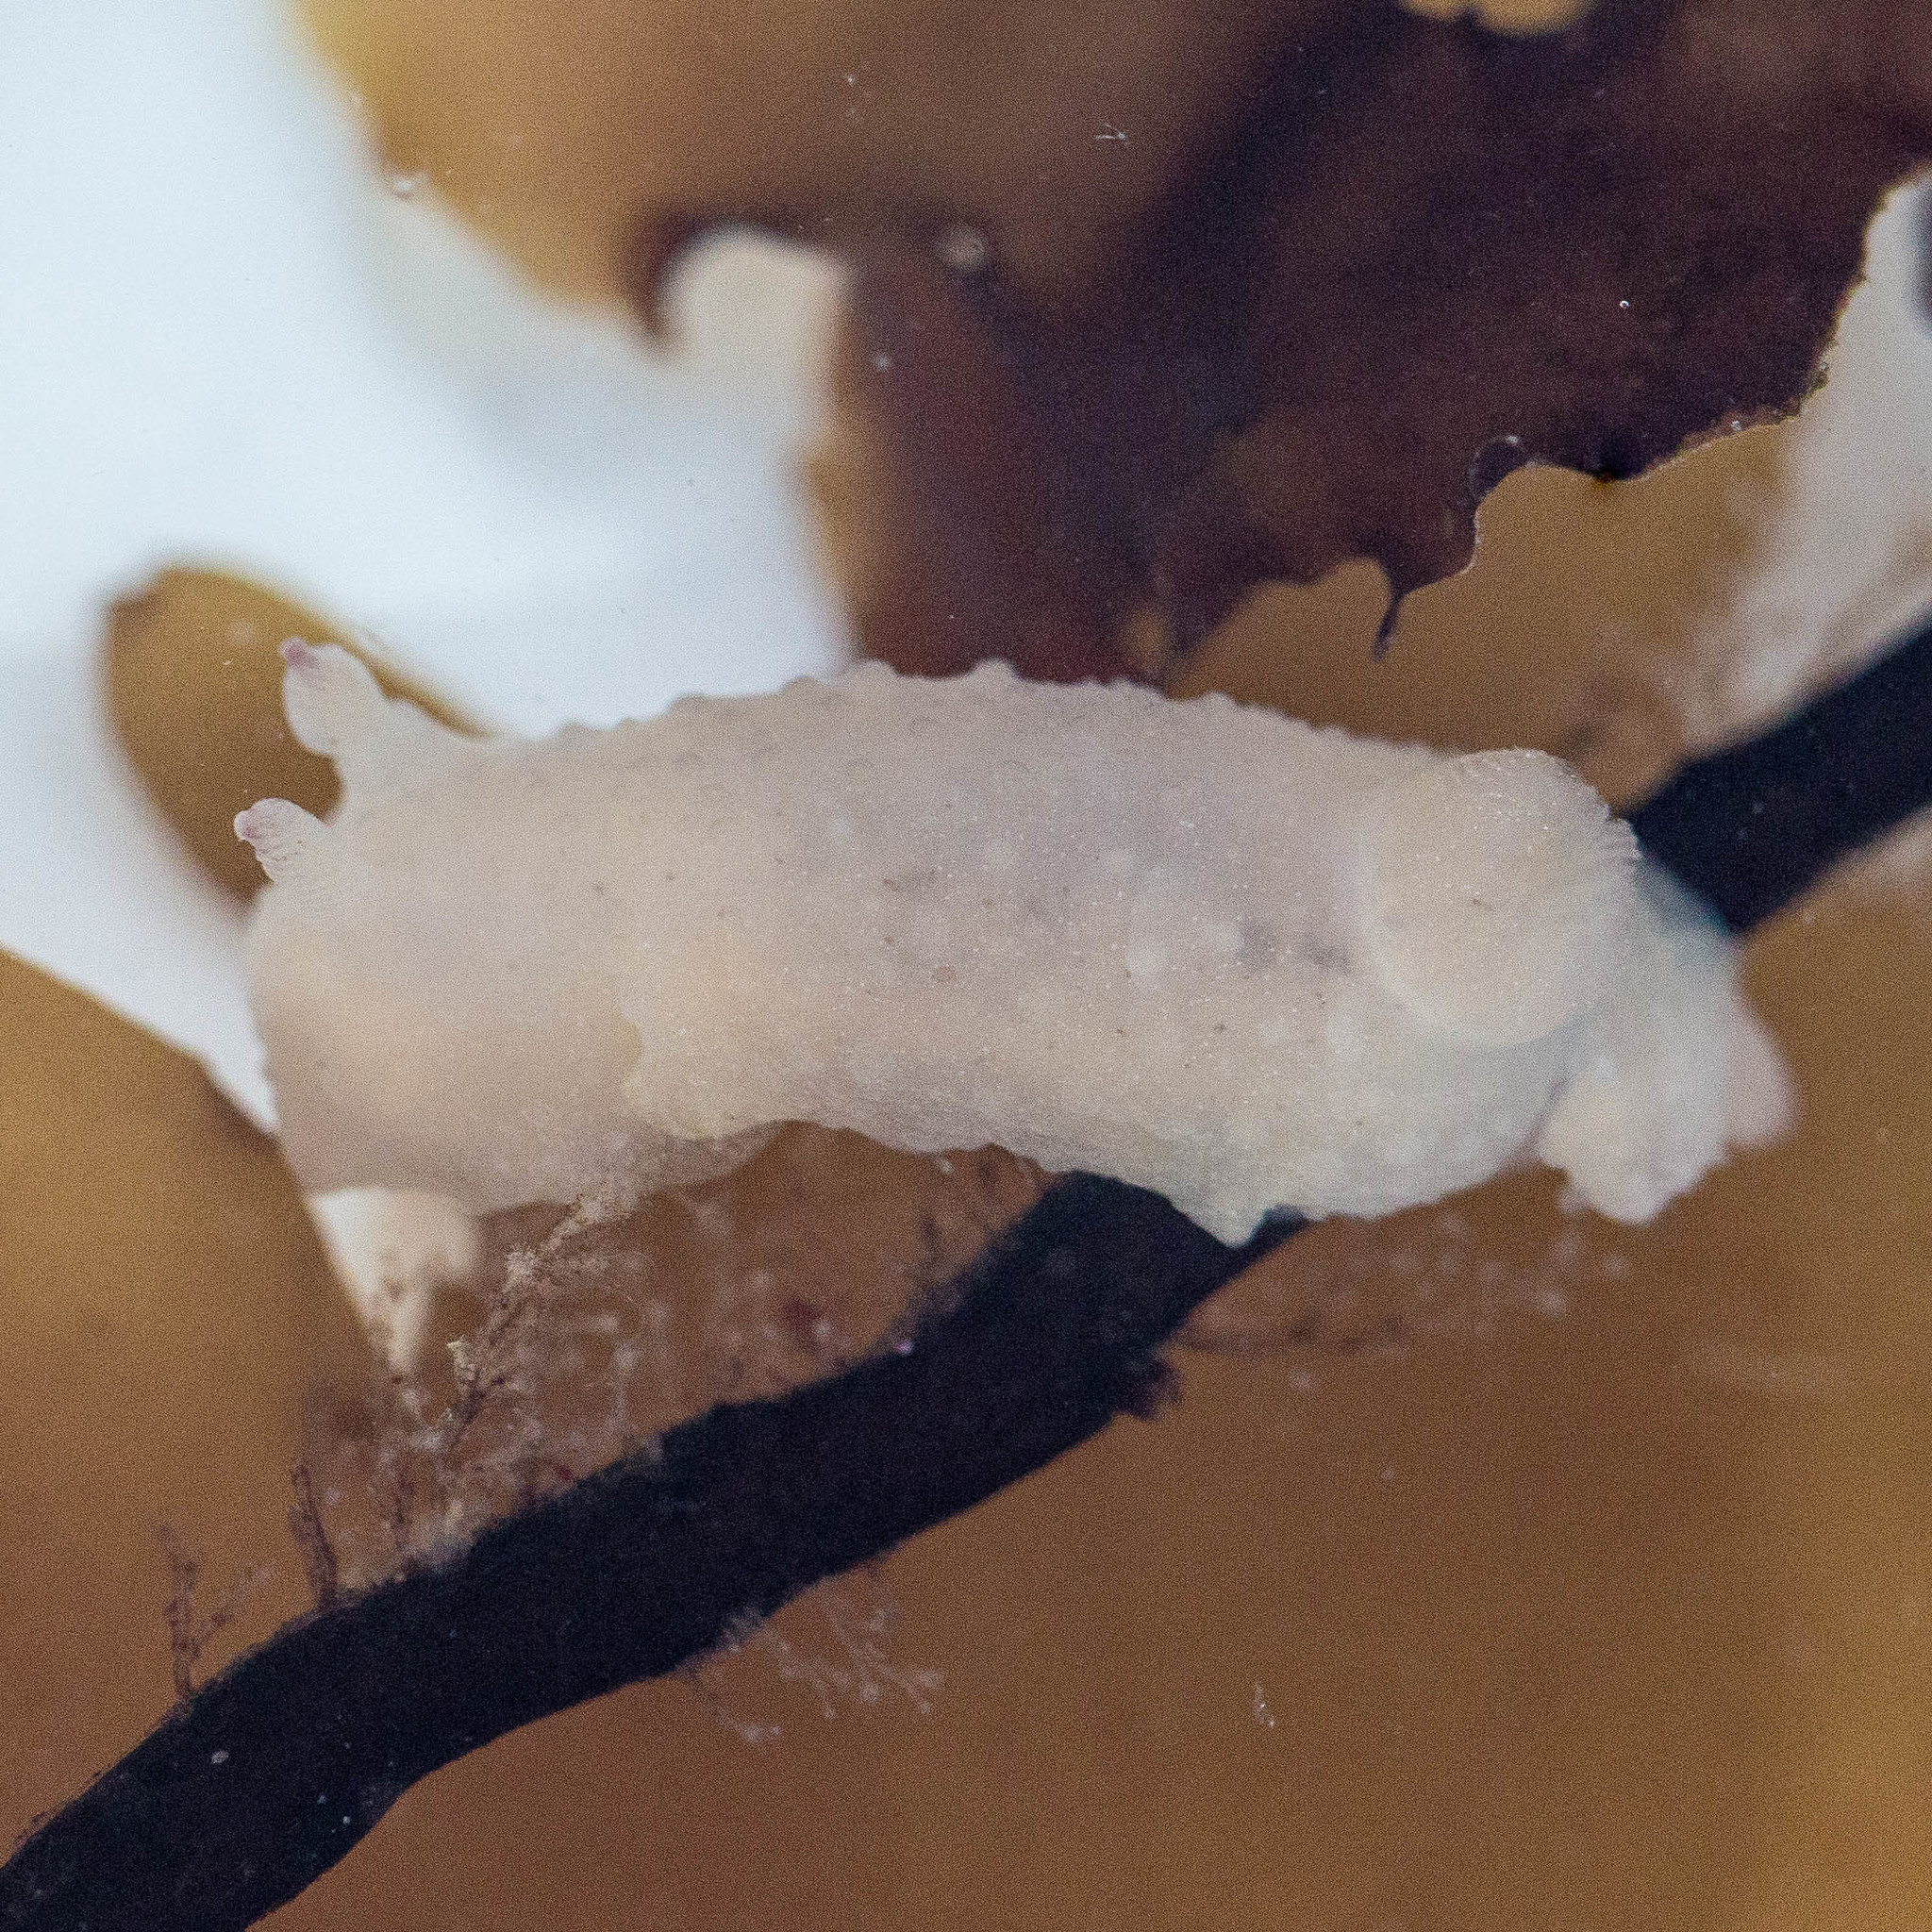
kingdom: Animalia
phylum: Mollusca
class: Gastropoda
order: Nudibranchia
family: Actinocyclidae
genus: Hallaxa
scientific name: Hallaxa chani
